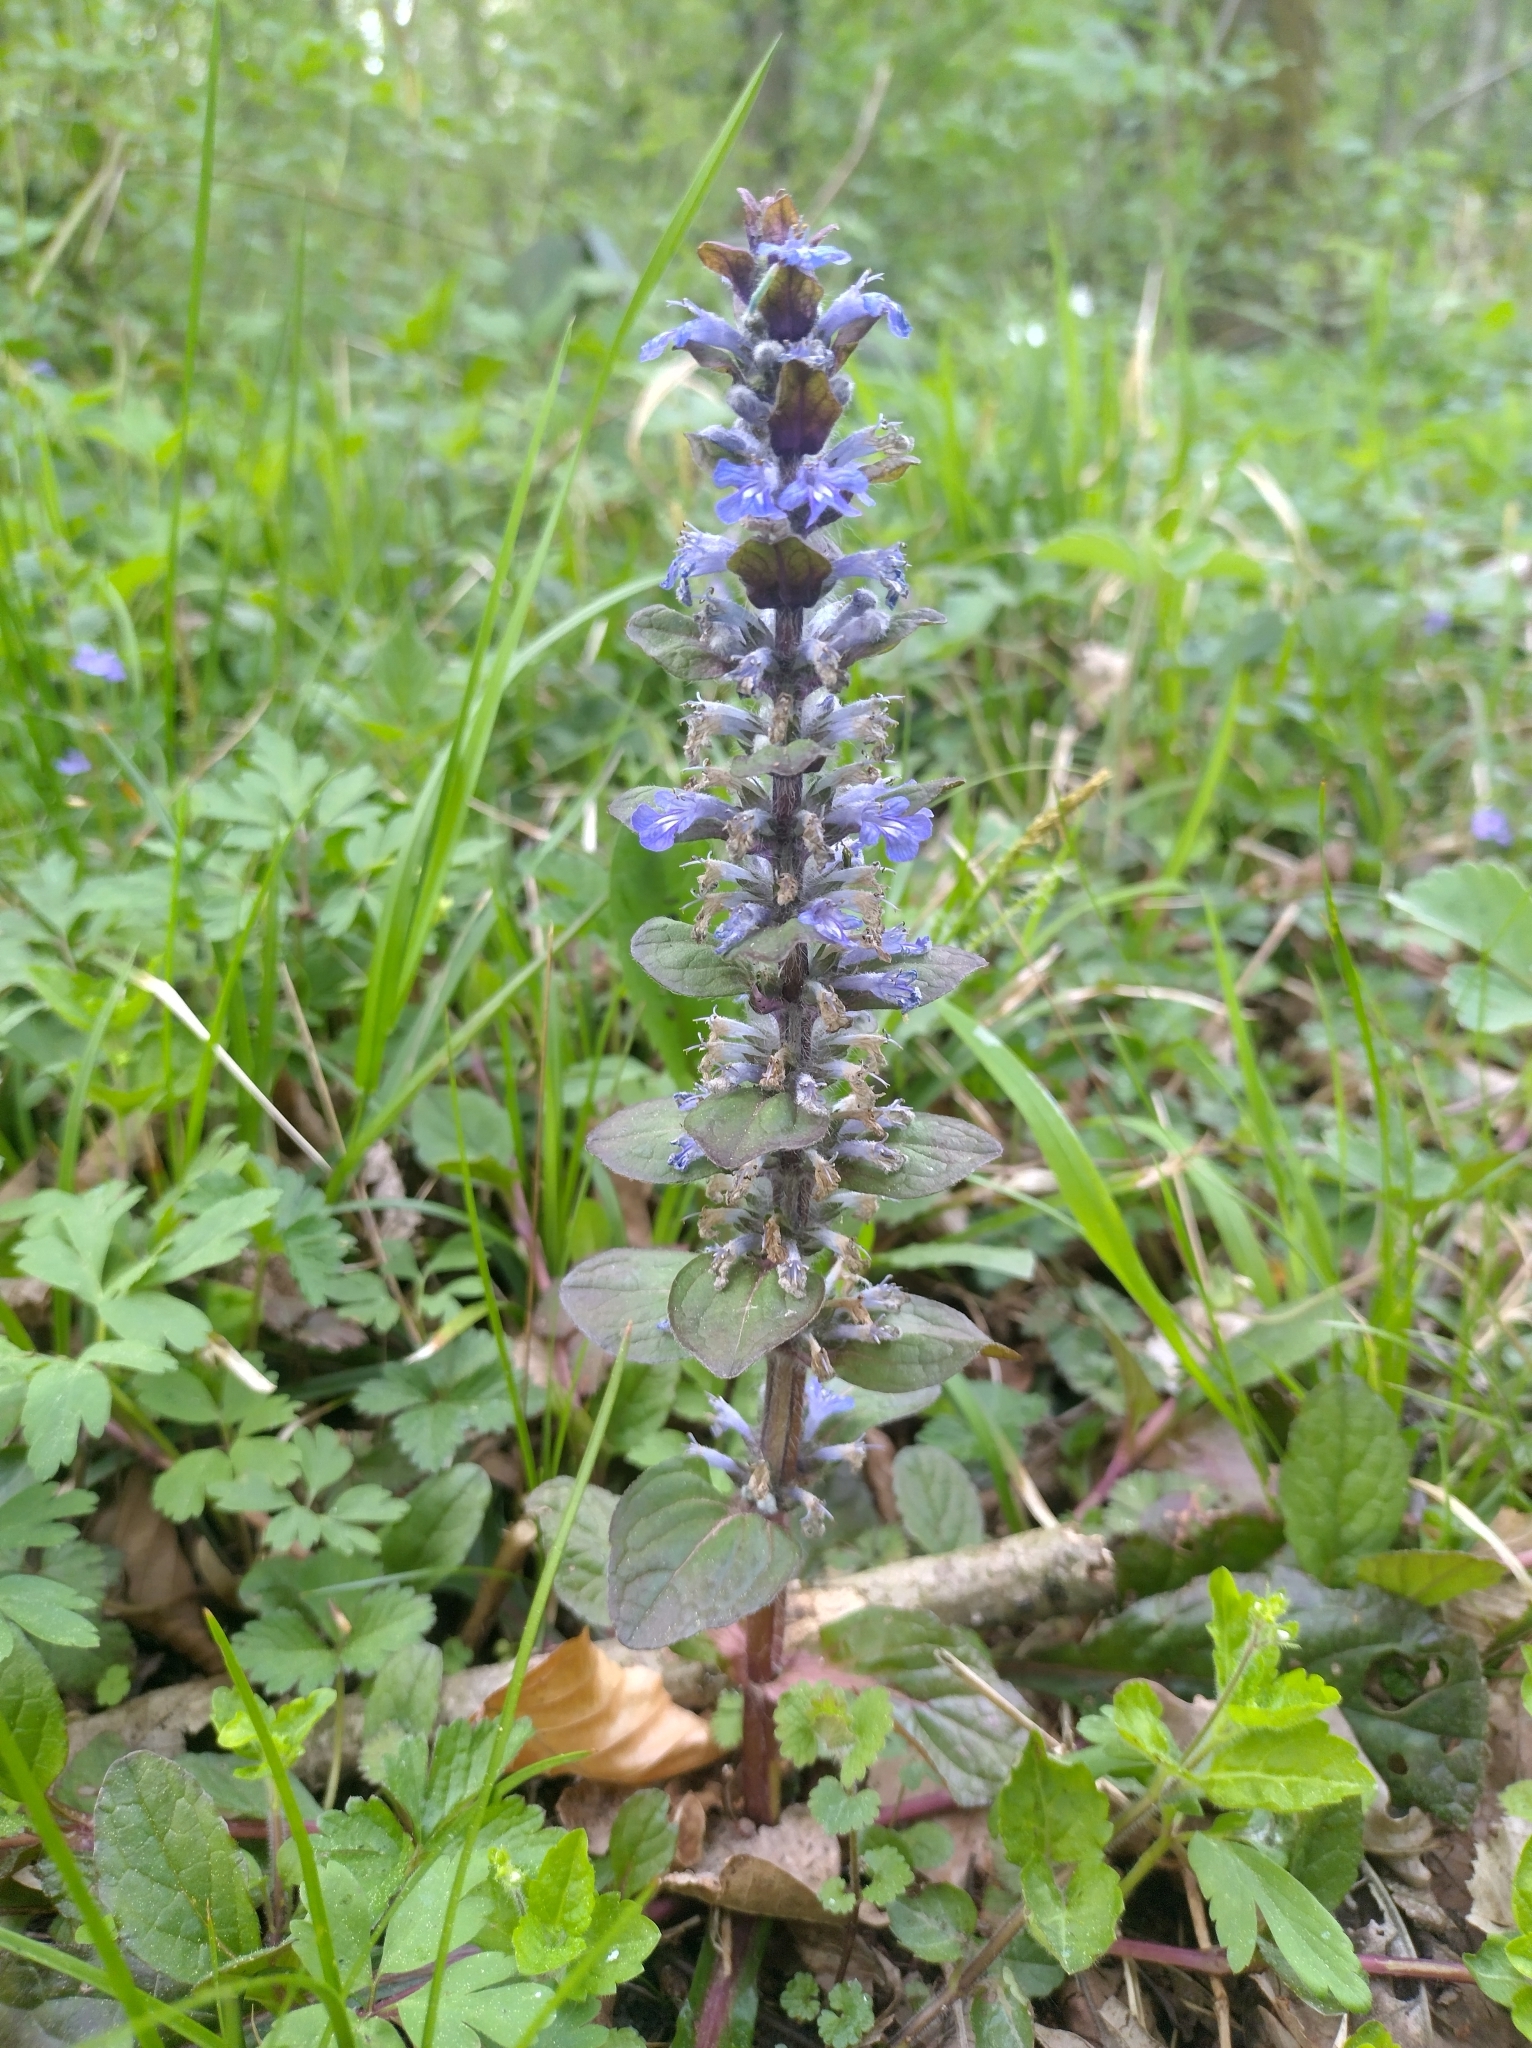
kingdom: Plantae
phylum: Tracheophyta
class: Magnoliopsida
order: Lamiales
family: Lamiaceae
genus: Ajuga
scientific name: Ajuga reptans
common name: Bugle
